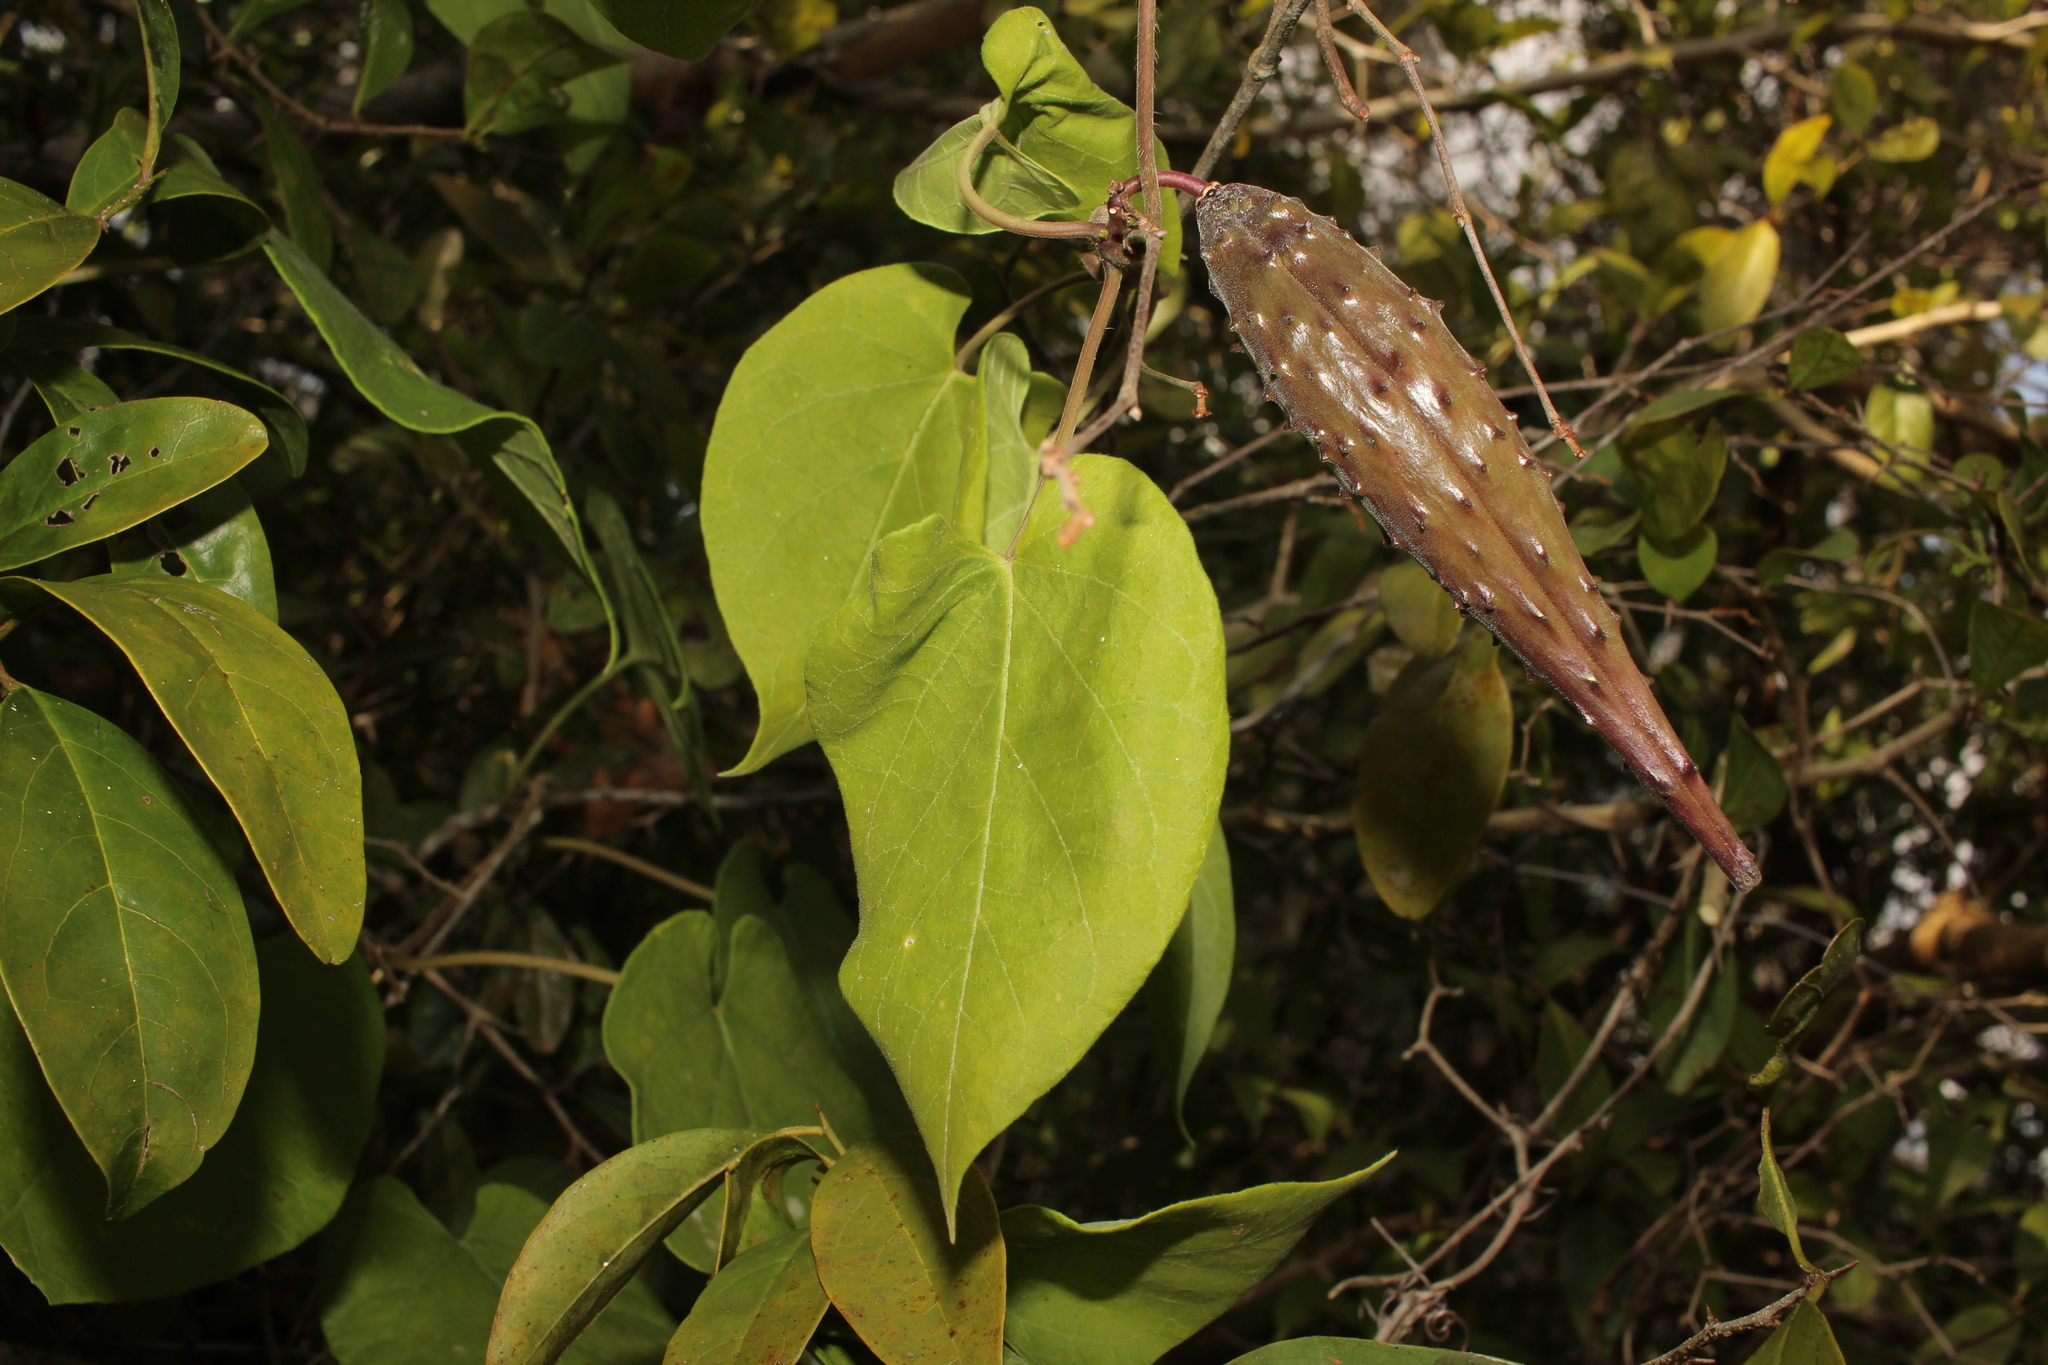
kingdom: Plantae
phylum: Tracheophyta
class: Magnoliopsida
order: Gentianales
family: Apocynaceae
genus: Matelea
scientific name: Matelea floridana
